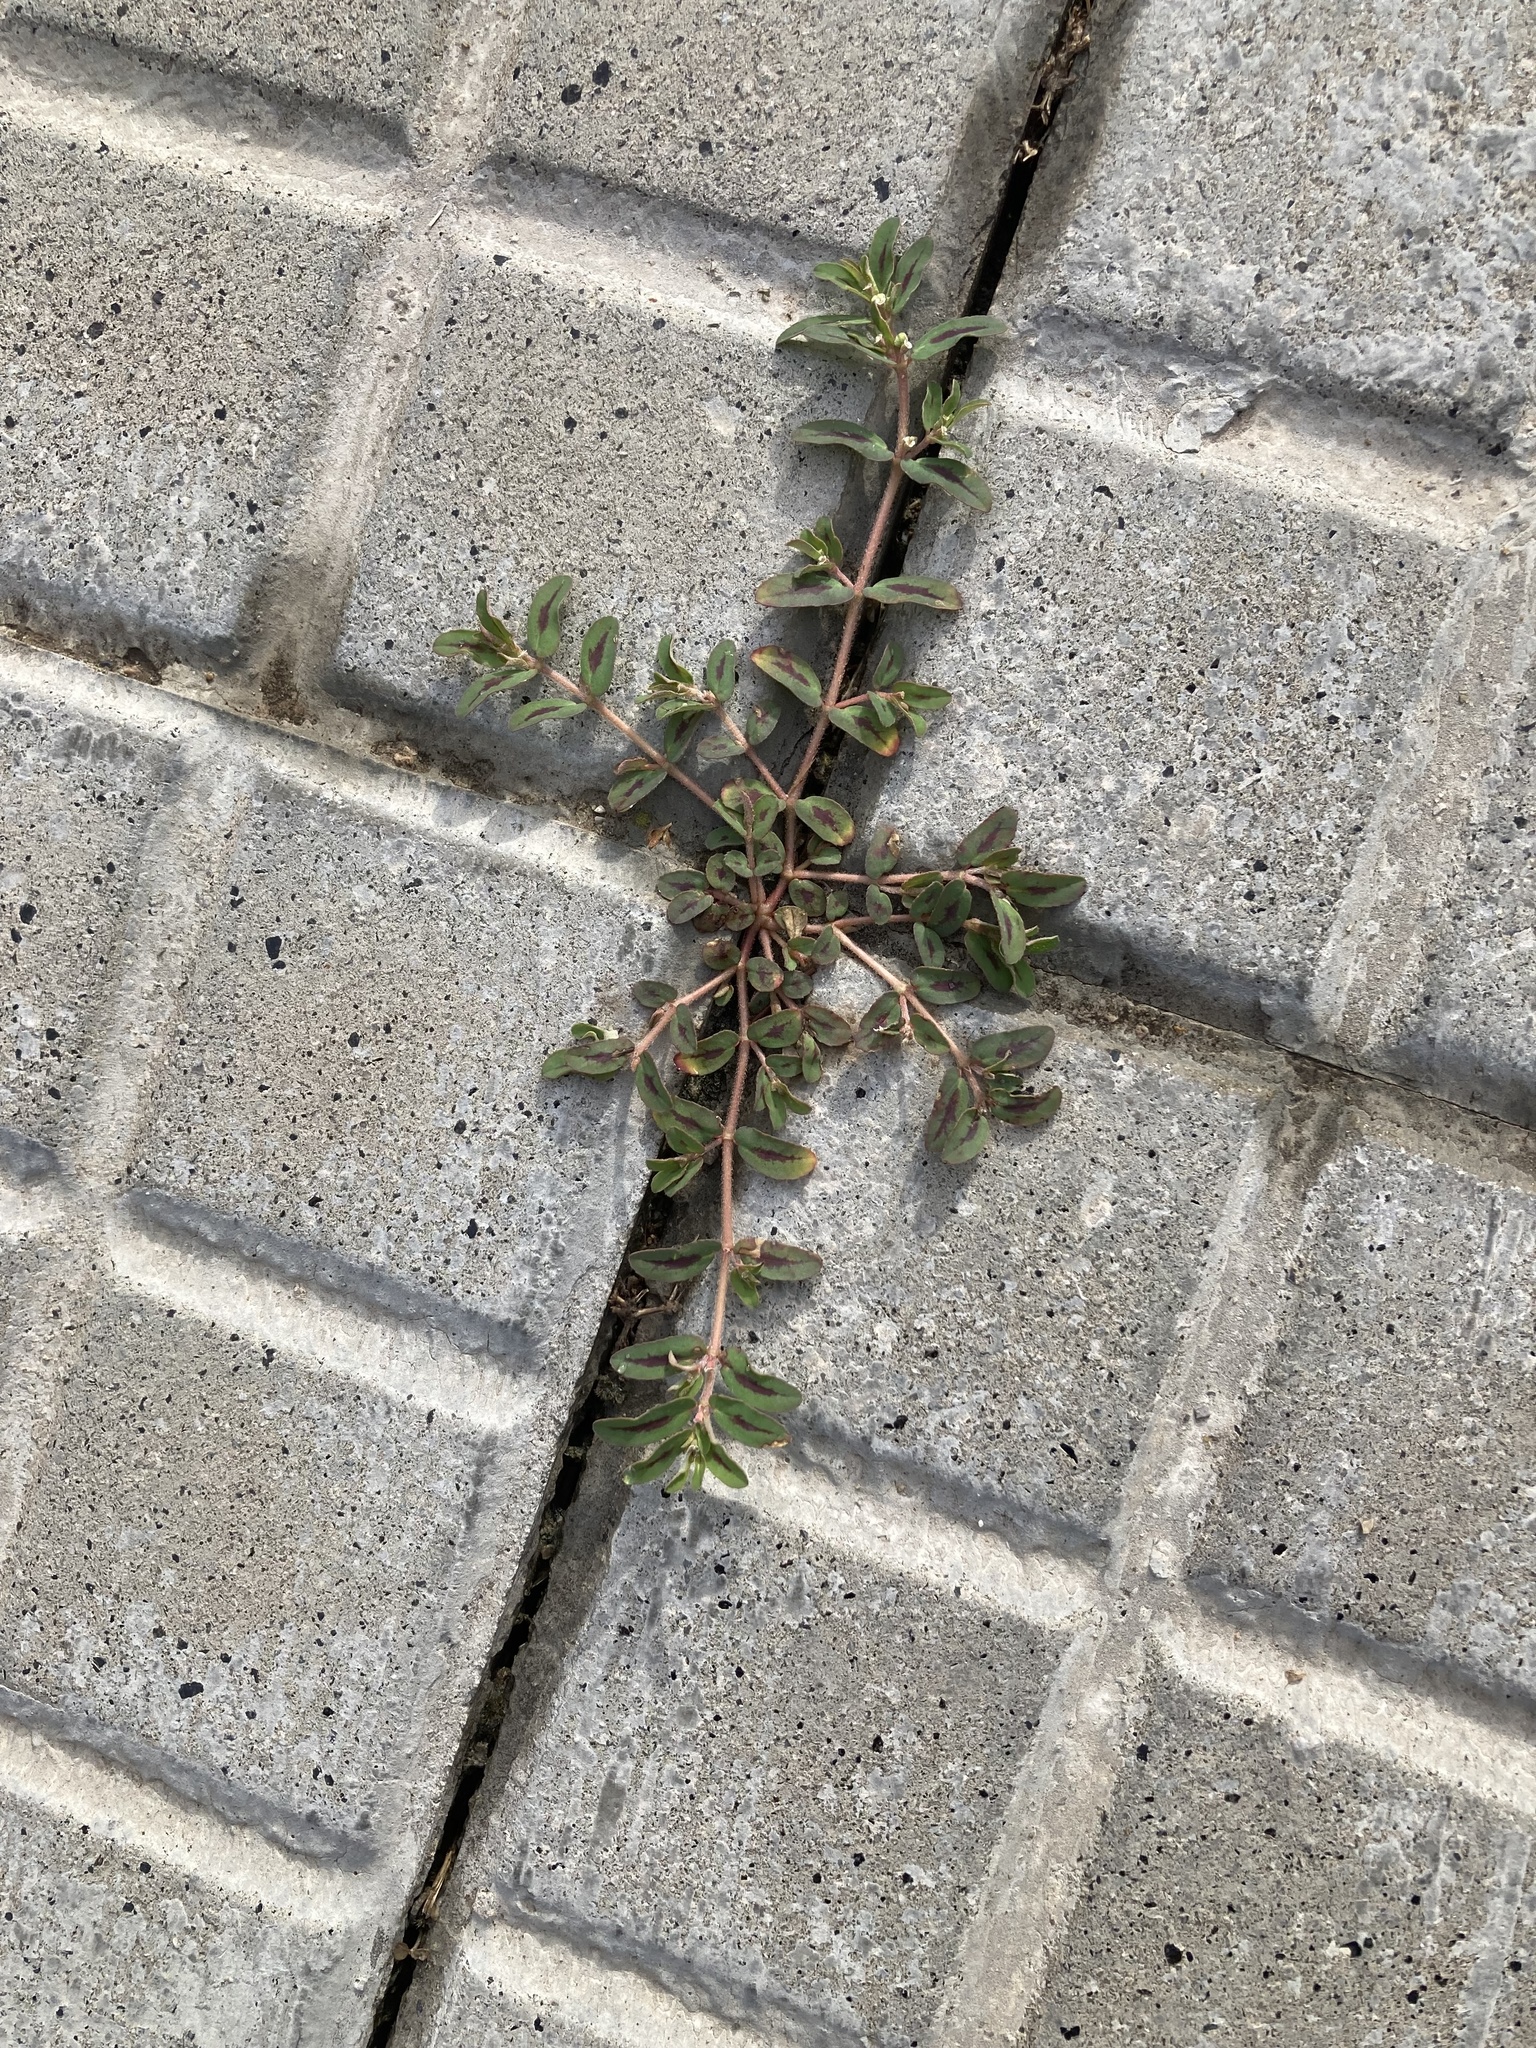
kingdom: Plantae
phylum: Tracheophyta
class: Magnoliopsida
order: Malpighiales
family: Euphorbiaceae
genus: Euphorbia
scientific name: Euphorbia maculata
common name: Spotted spurge
